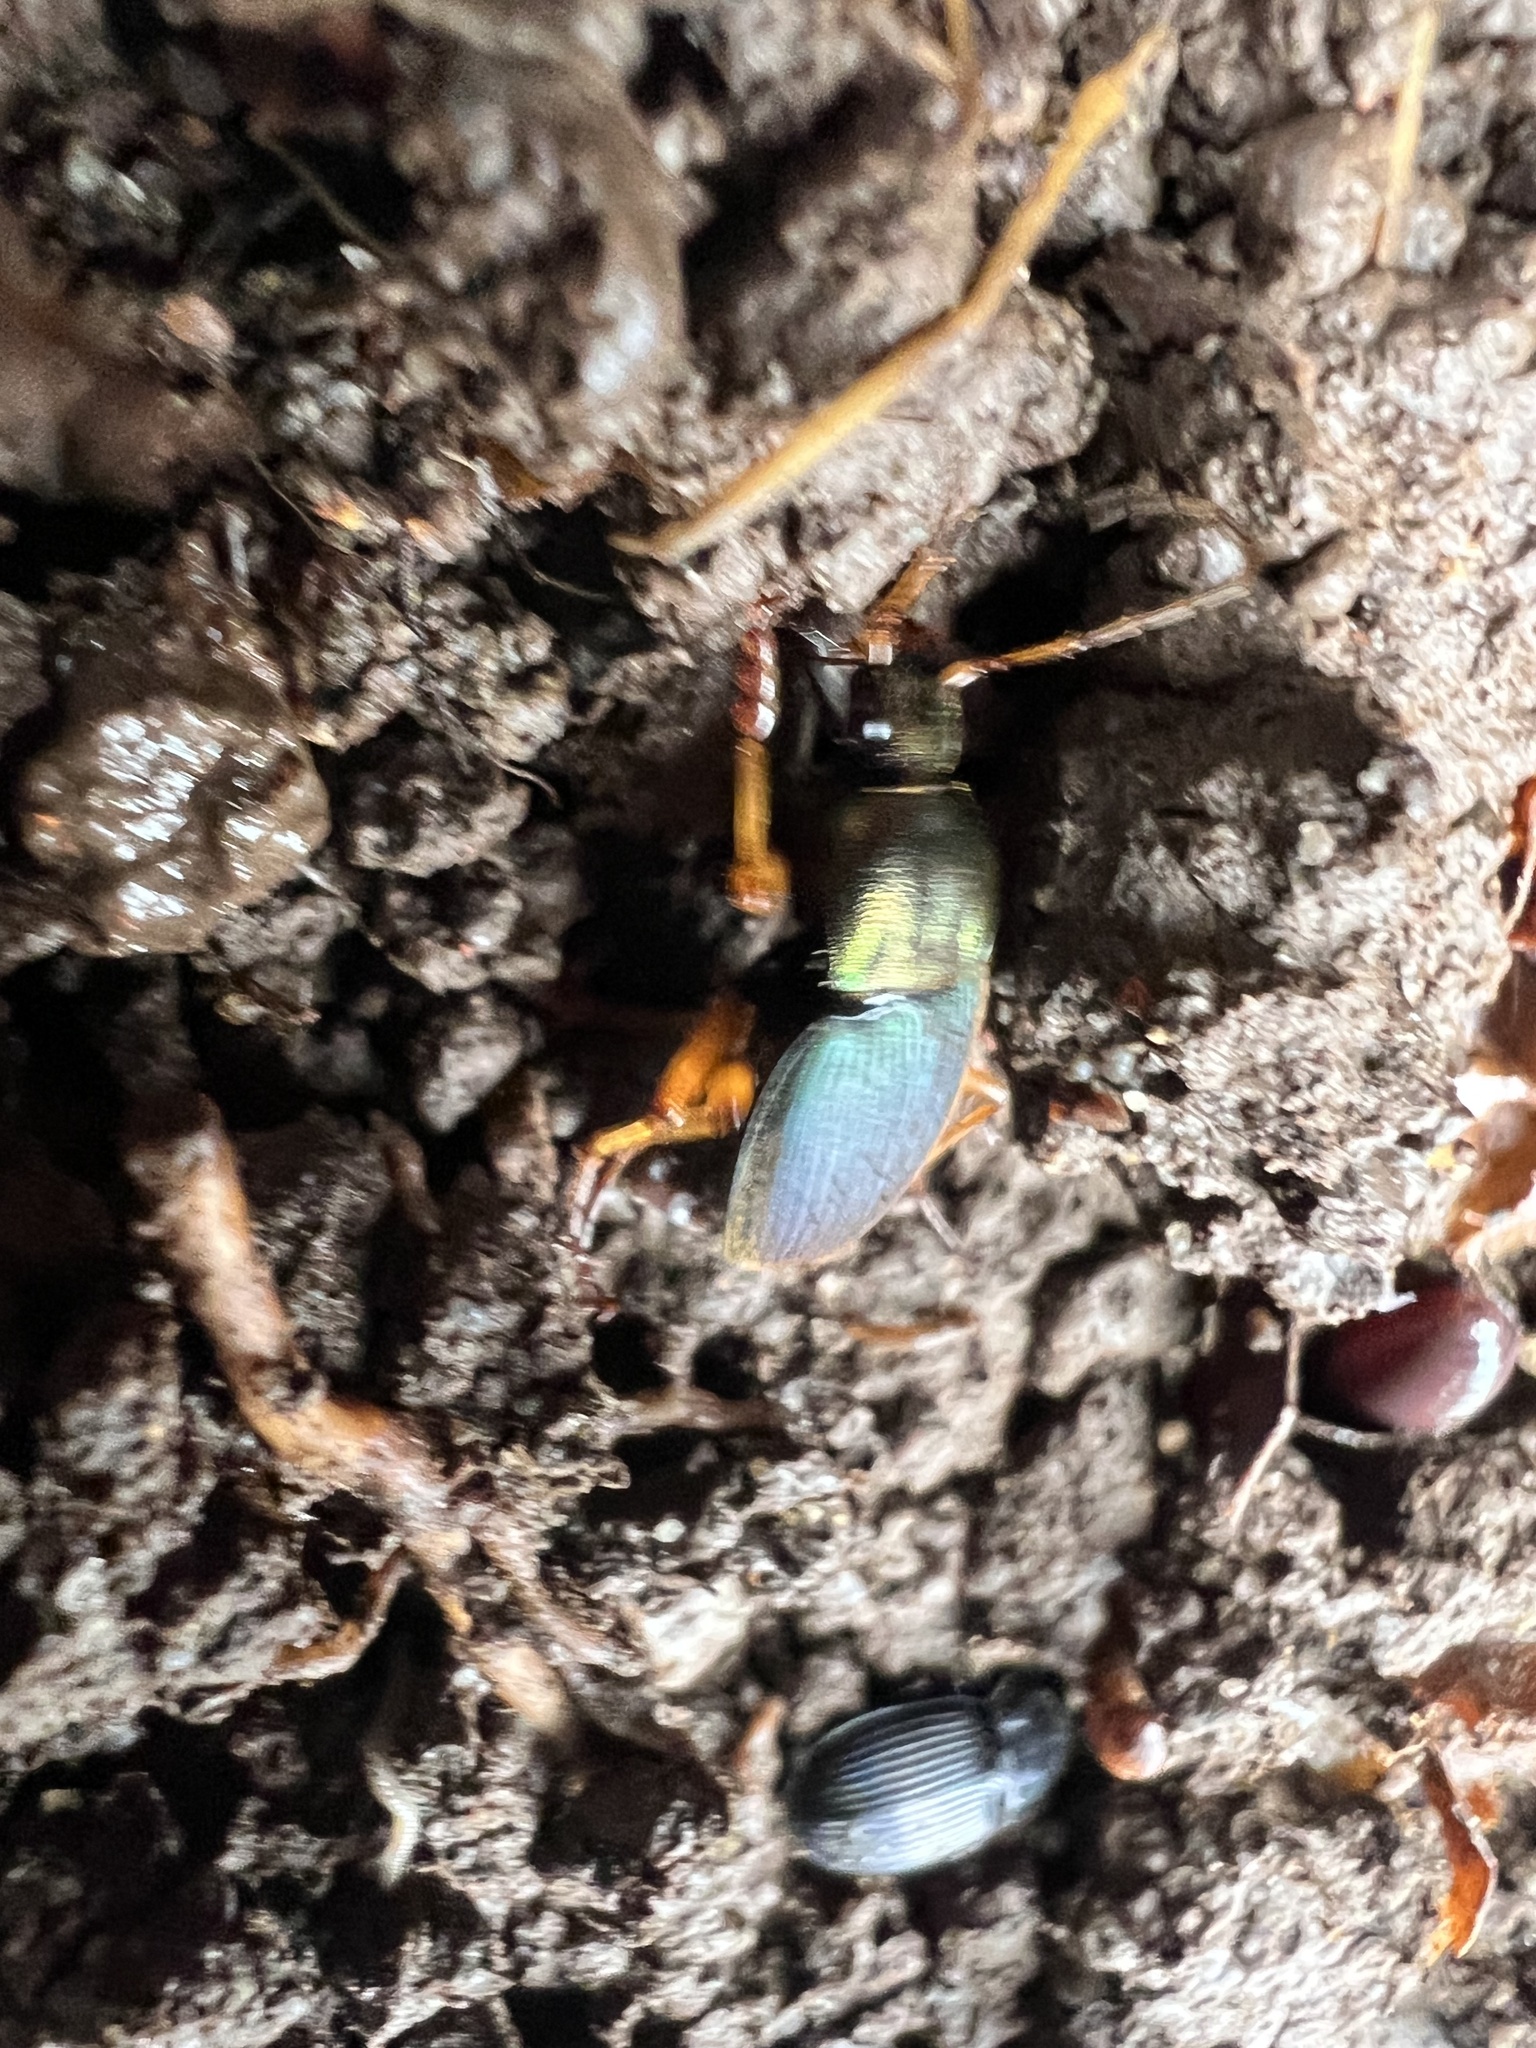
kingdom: Animalia
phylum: Arthropoda
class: Insecta
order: Coleoptera
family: Carabidae
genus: Chlaenius
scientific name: Chlaenius aestivus
